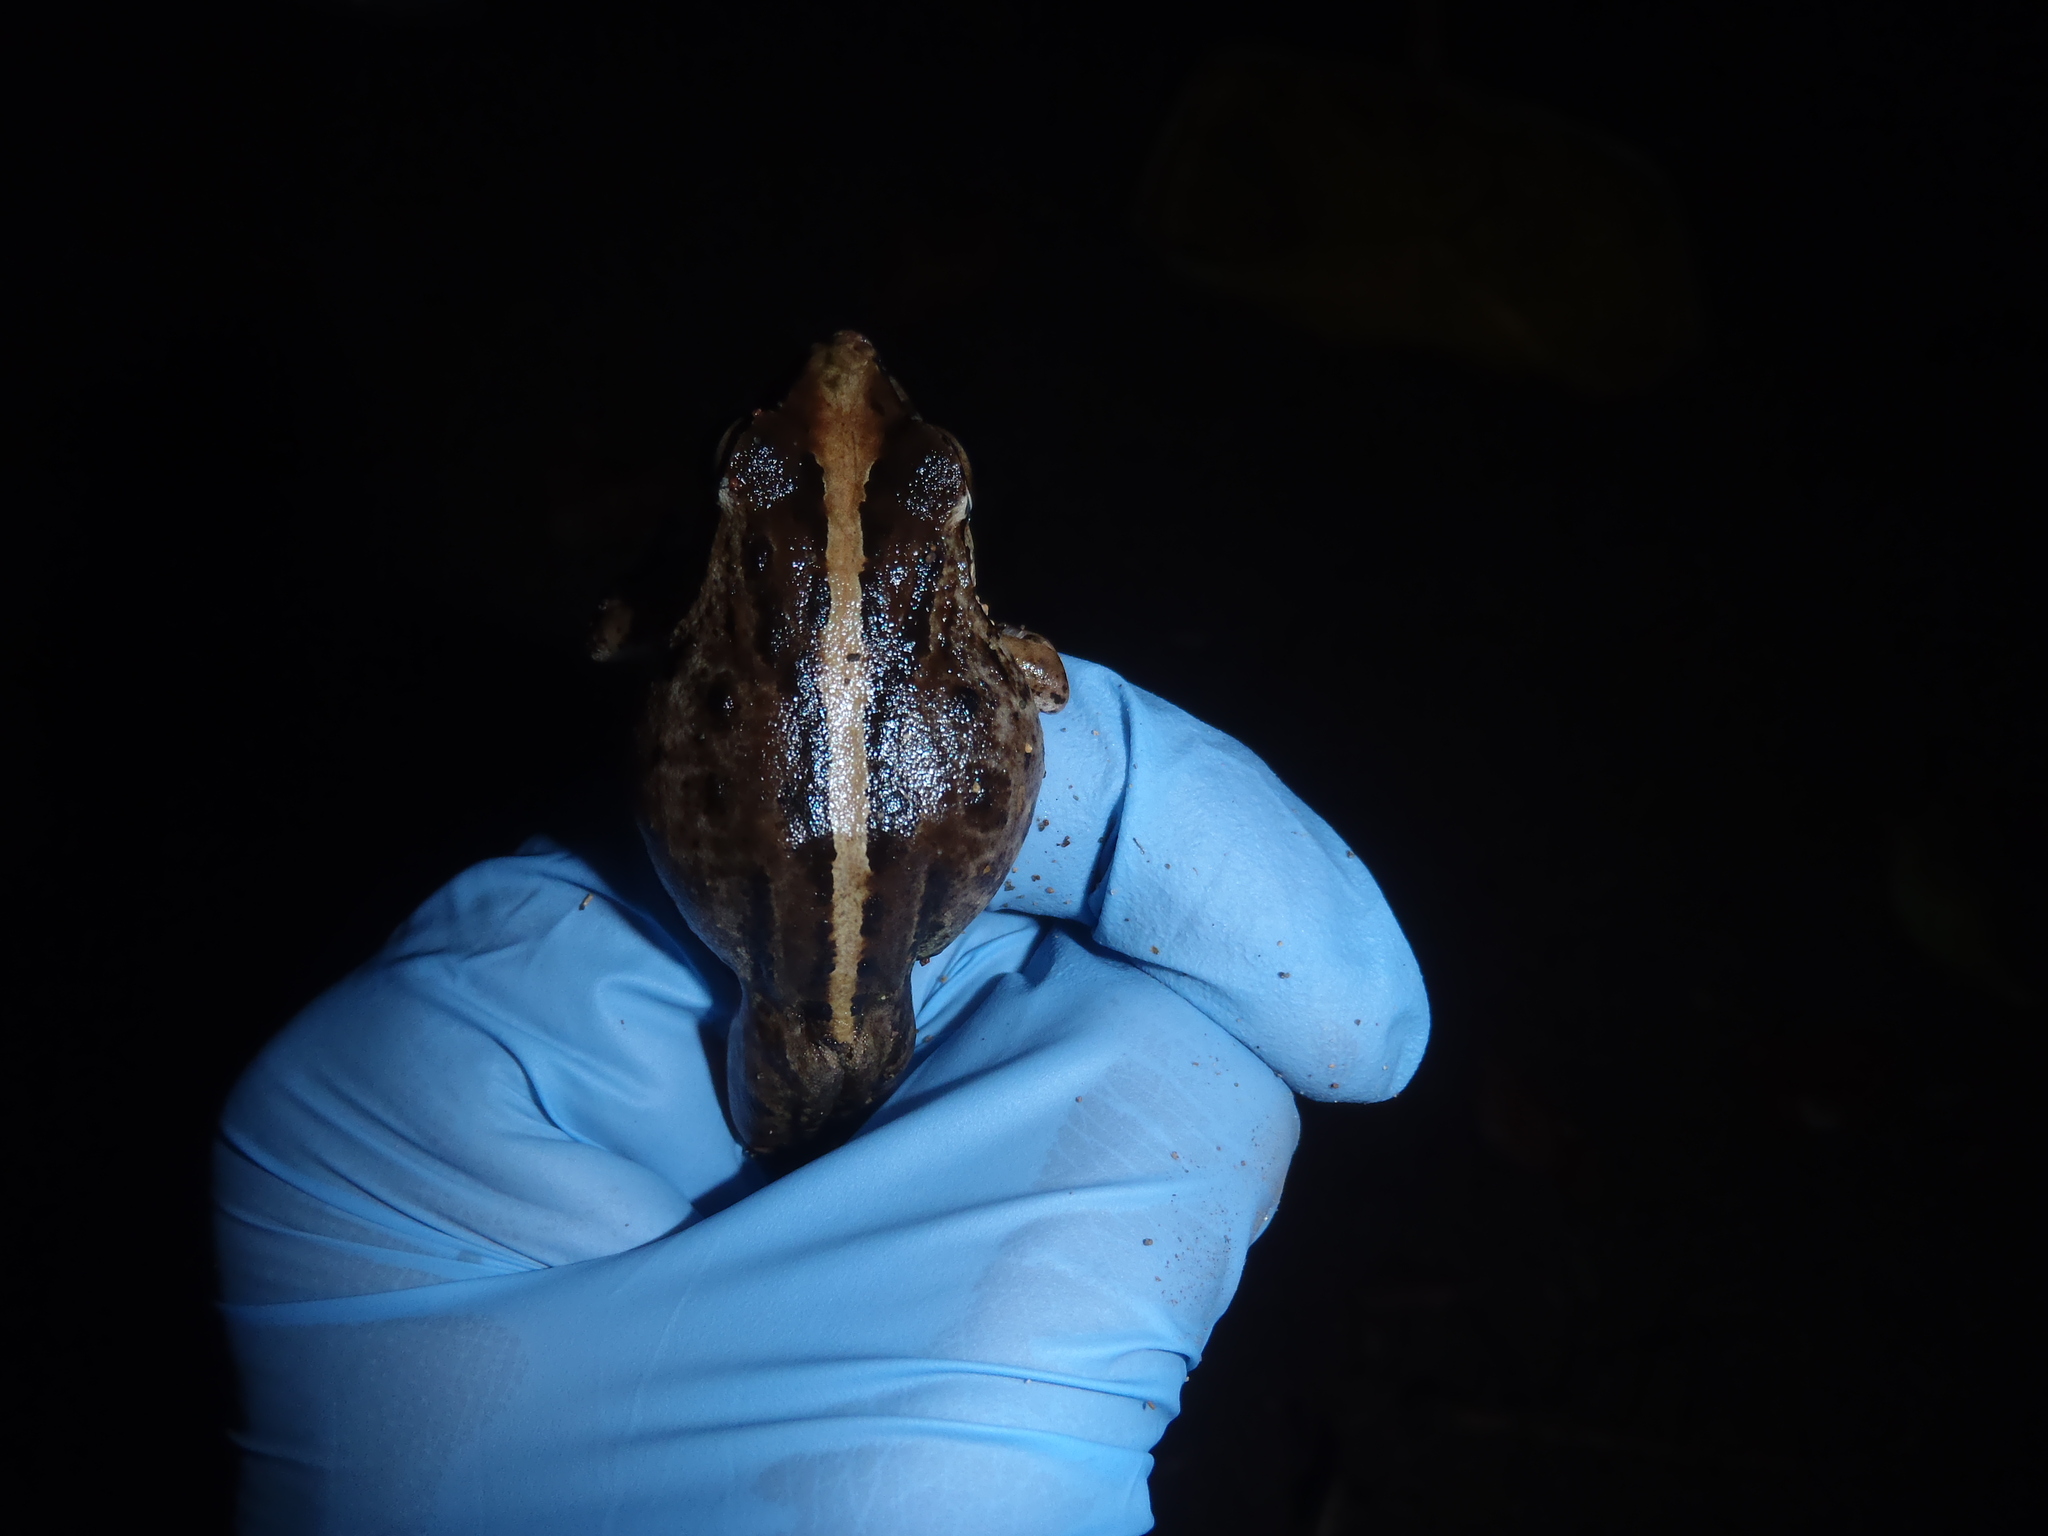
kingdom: Animalia
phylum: Chordata
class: Amphibia
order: Anura
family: Craugastoridae
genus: Craugastor
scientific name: Craugastor fitzingeri
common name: Fitzinger's robber frog
